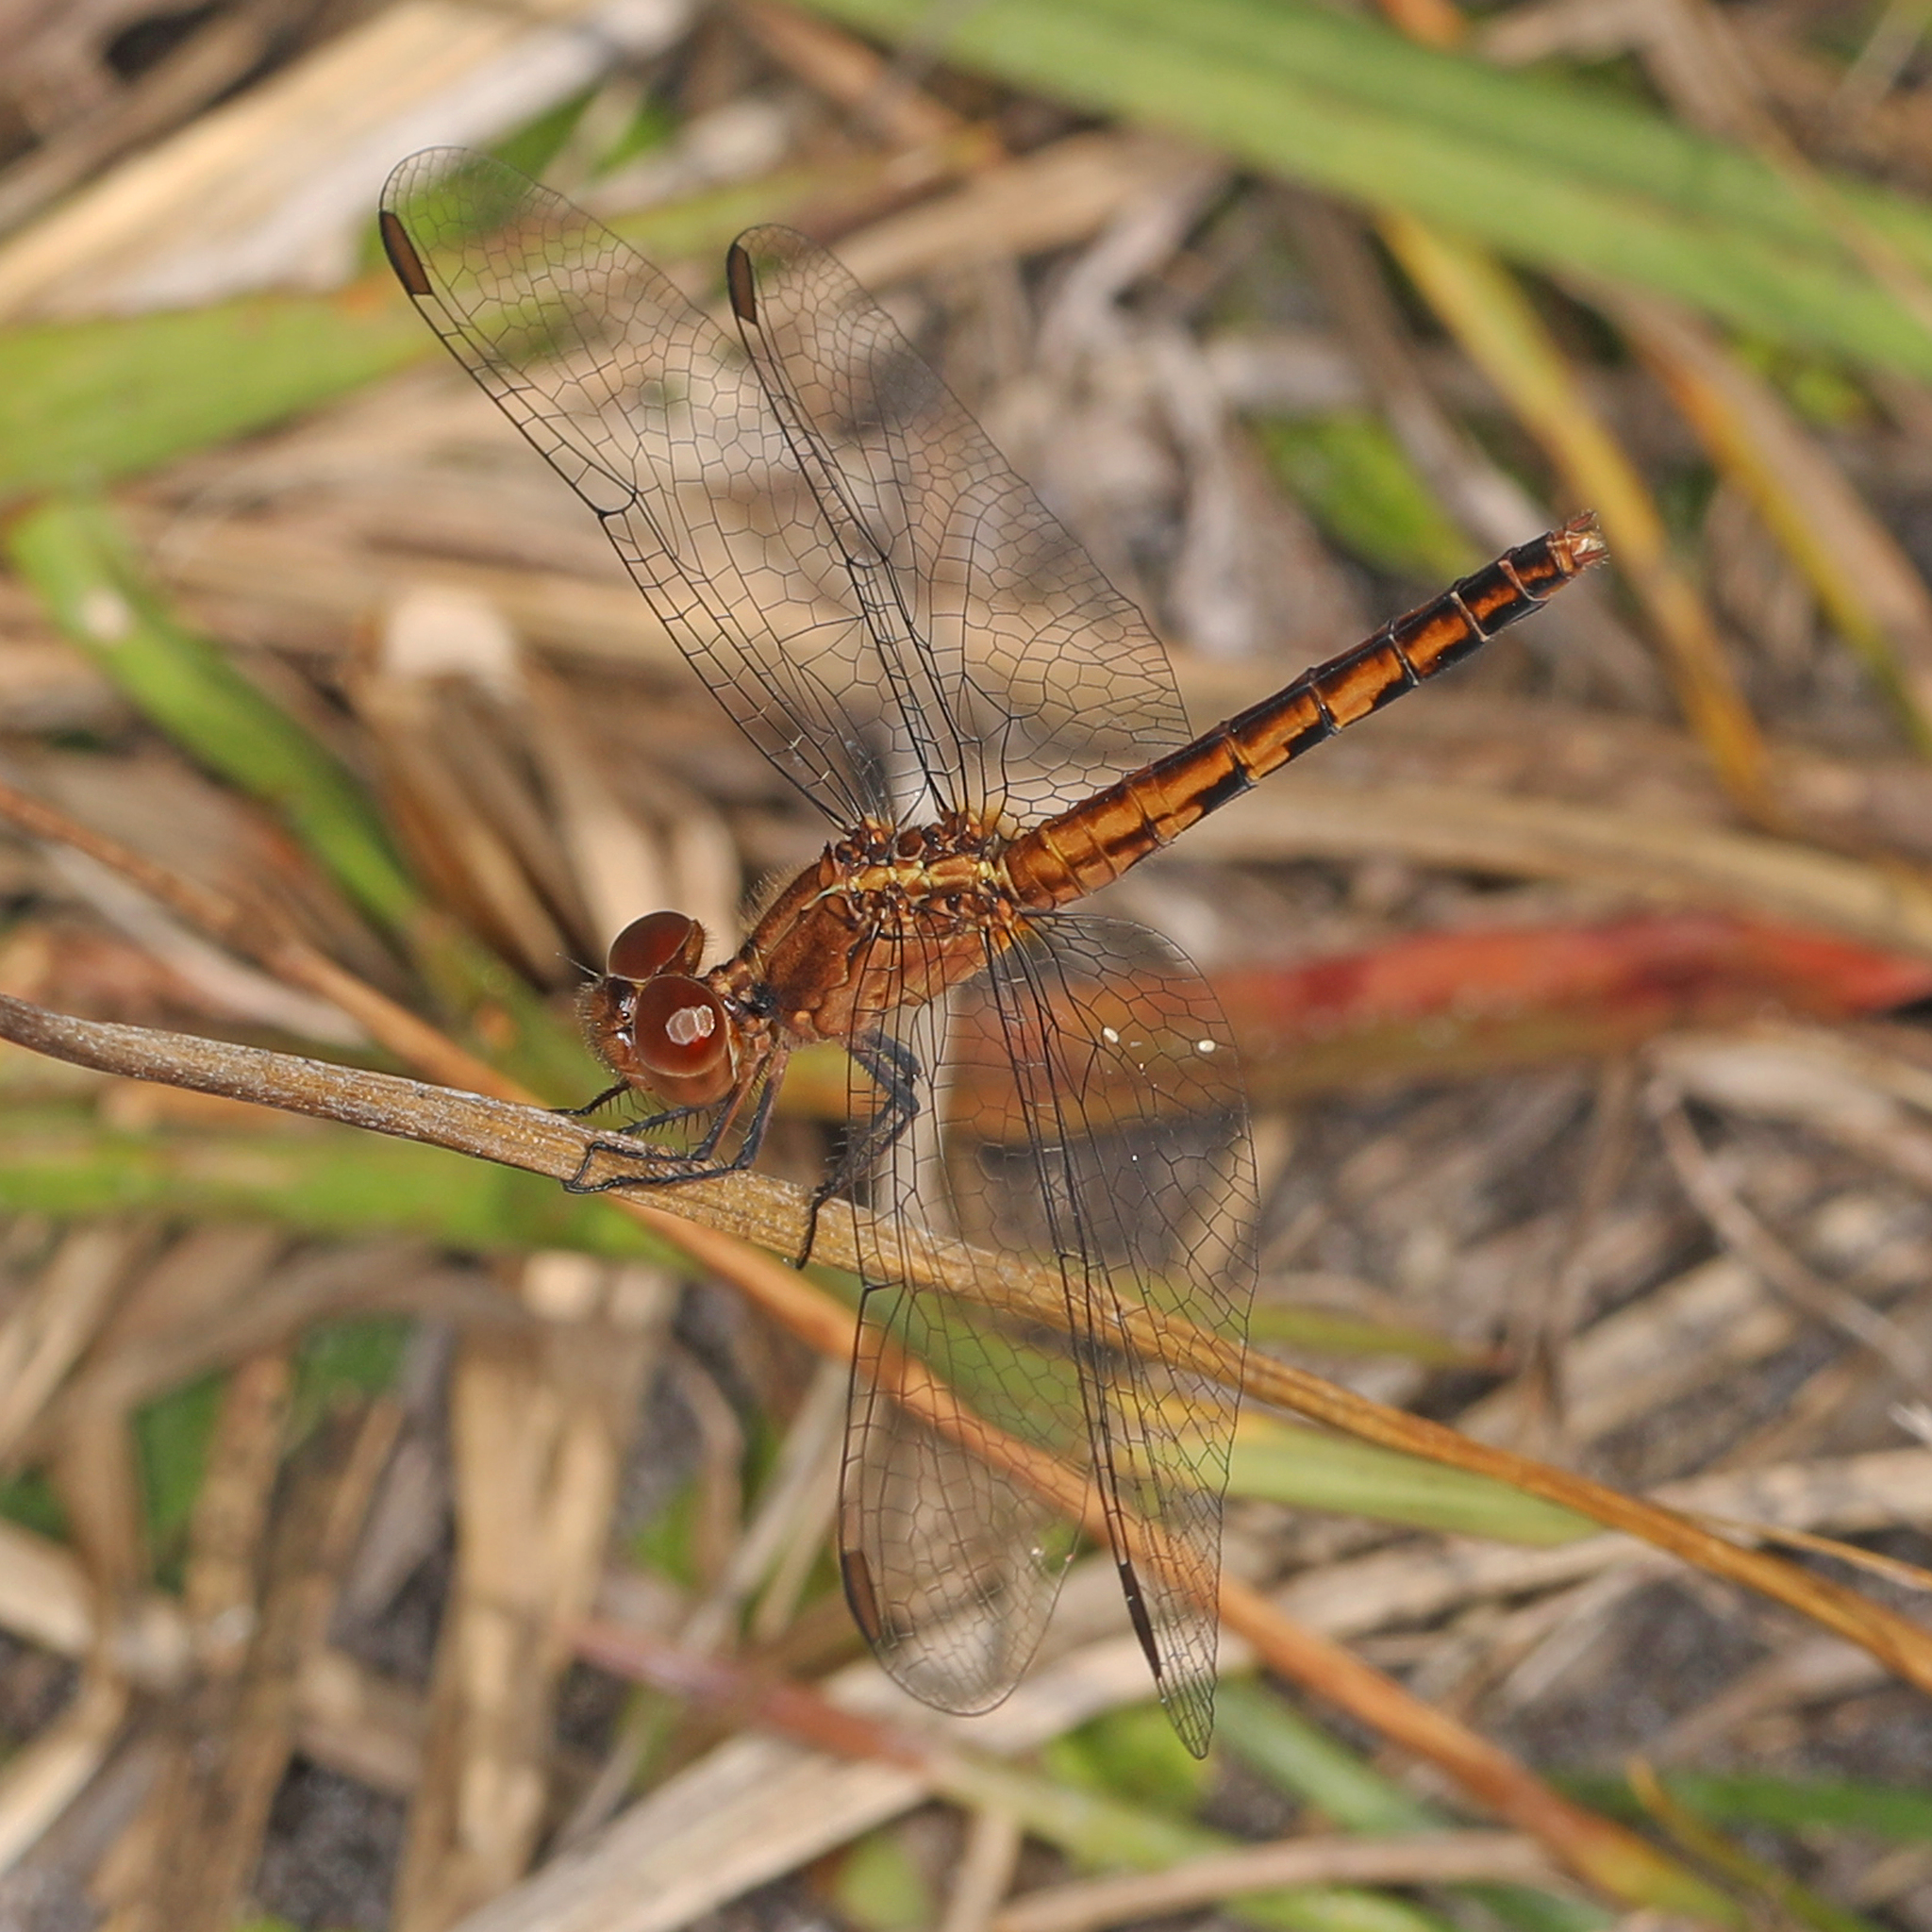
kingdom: Animalia
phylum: Arthropoda
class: Insecta
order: Odonata
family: Libellulidae
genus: Erythrodiplax
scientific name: Erythrodiplax minuscula
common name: Little blue dragonlet
